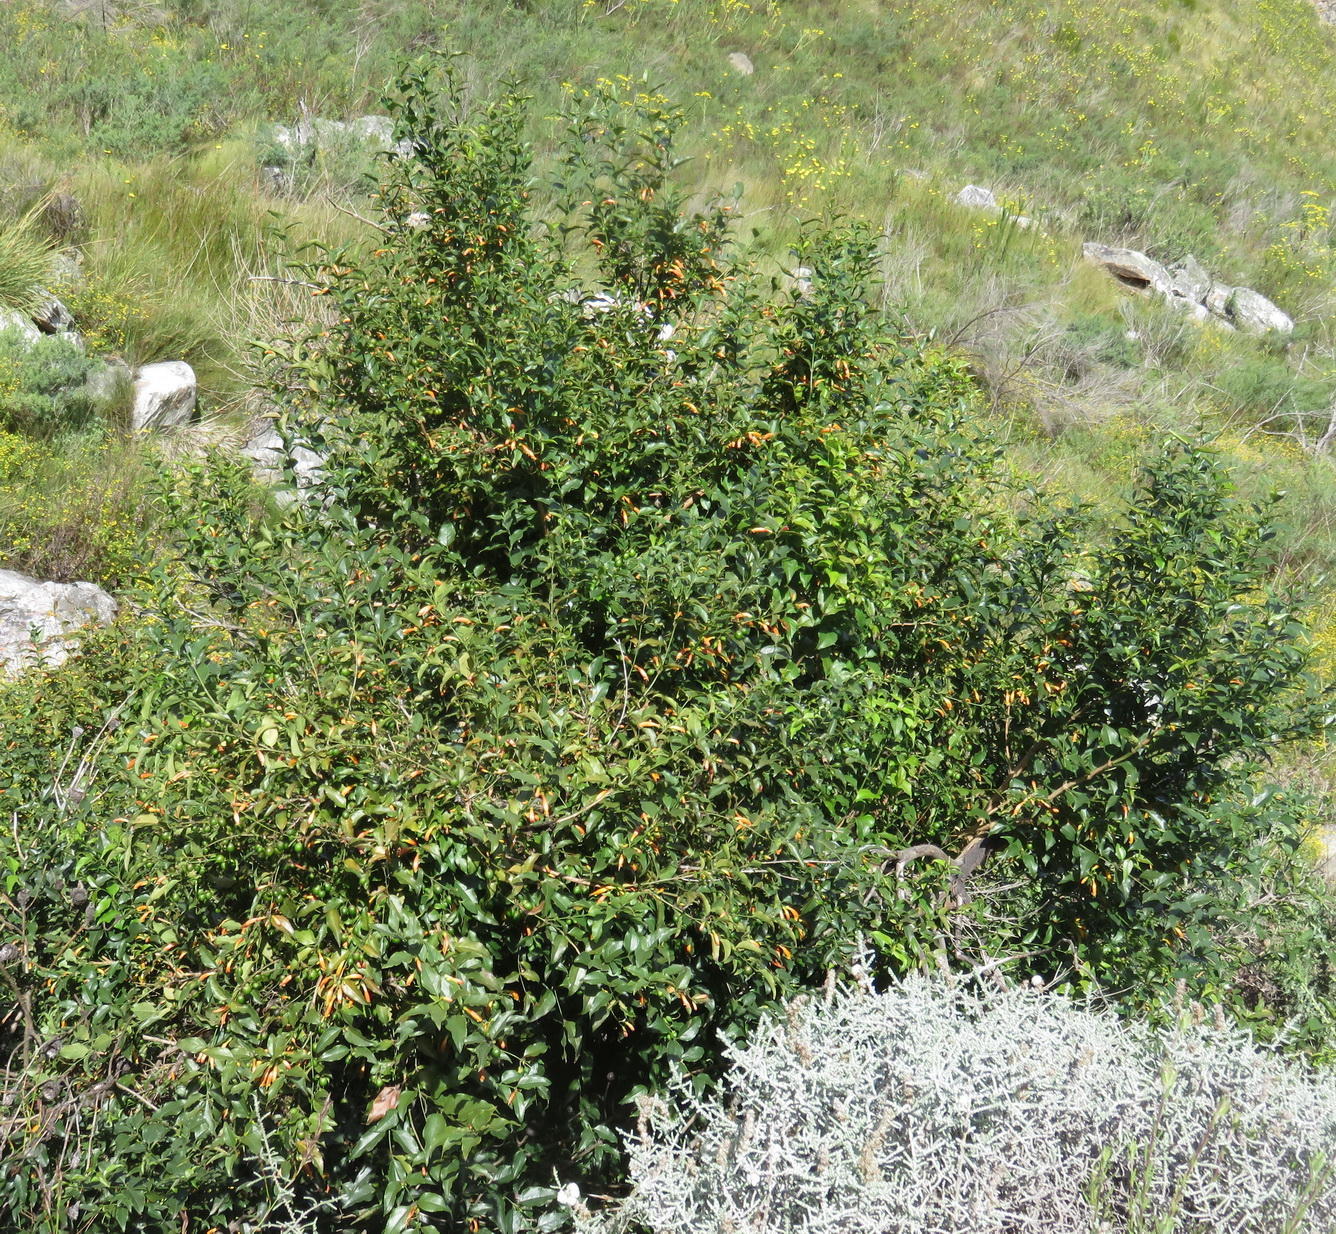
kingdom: Plantae
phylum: Tracheophyta
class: Magnoliopsida
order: Lamiales
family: Stilbaceae
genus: Halleria
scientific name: Halleria lucida
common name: Tree fuschia
